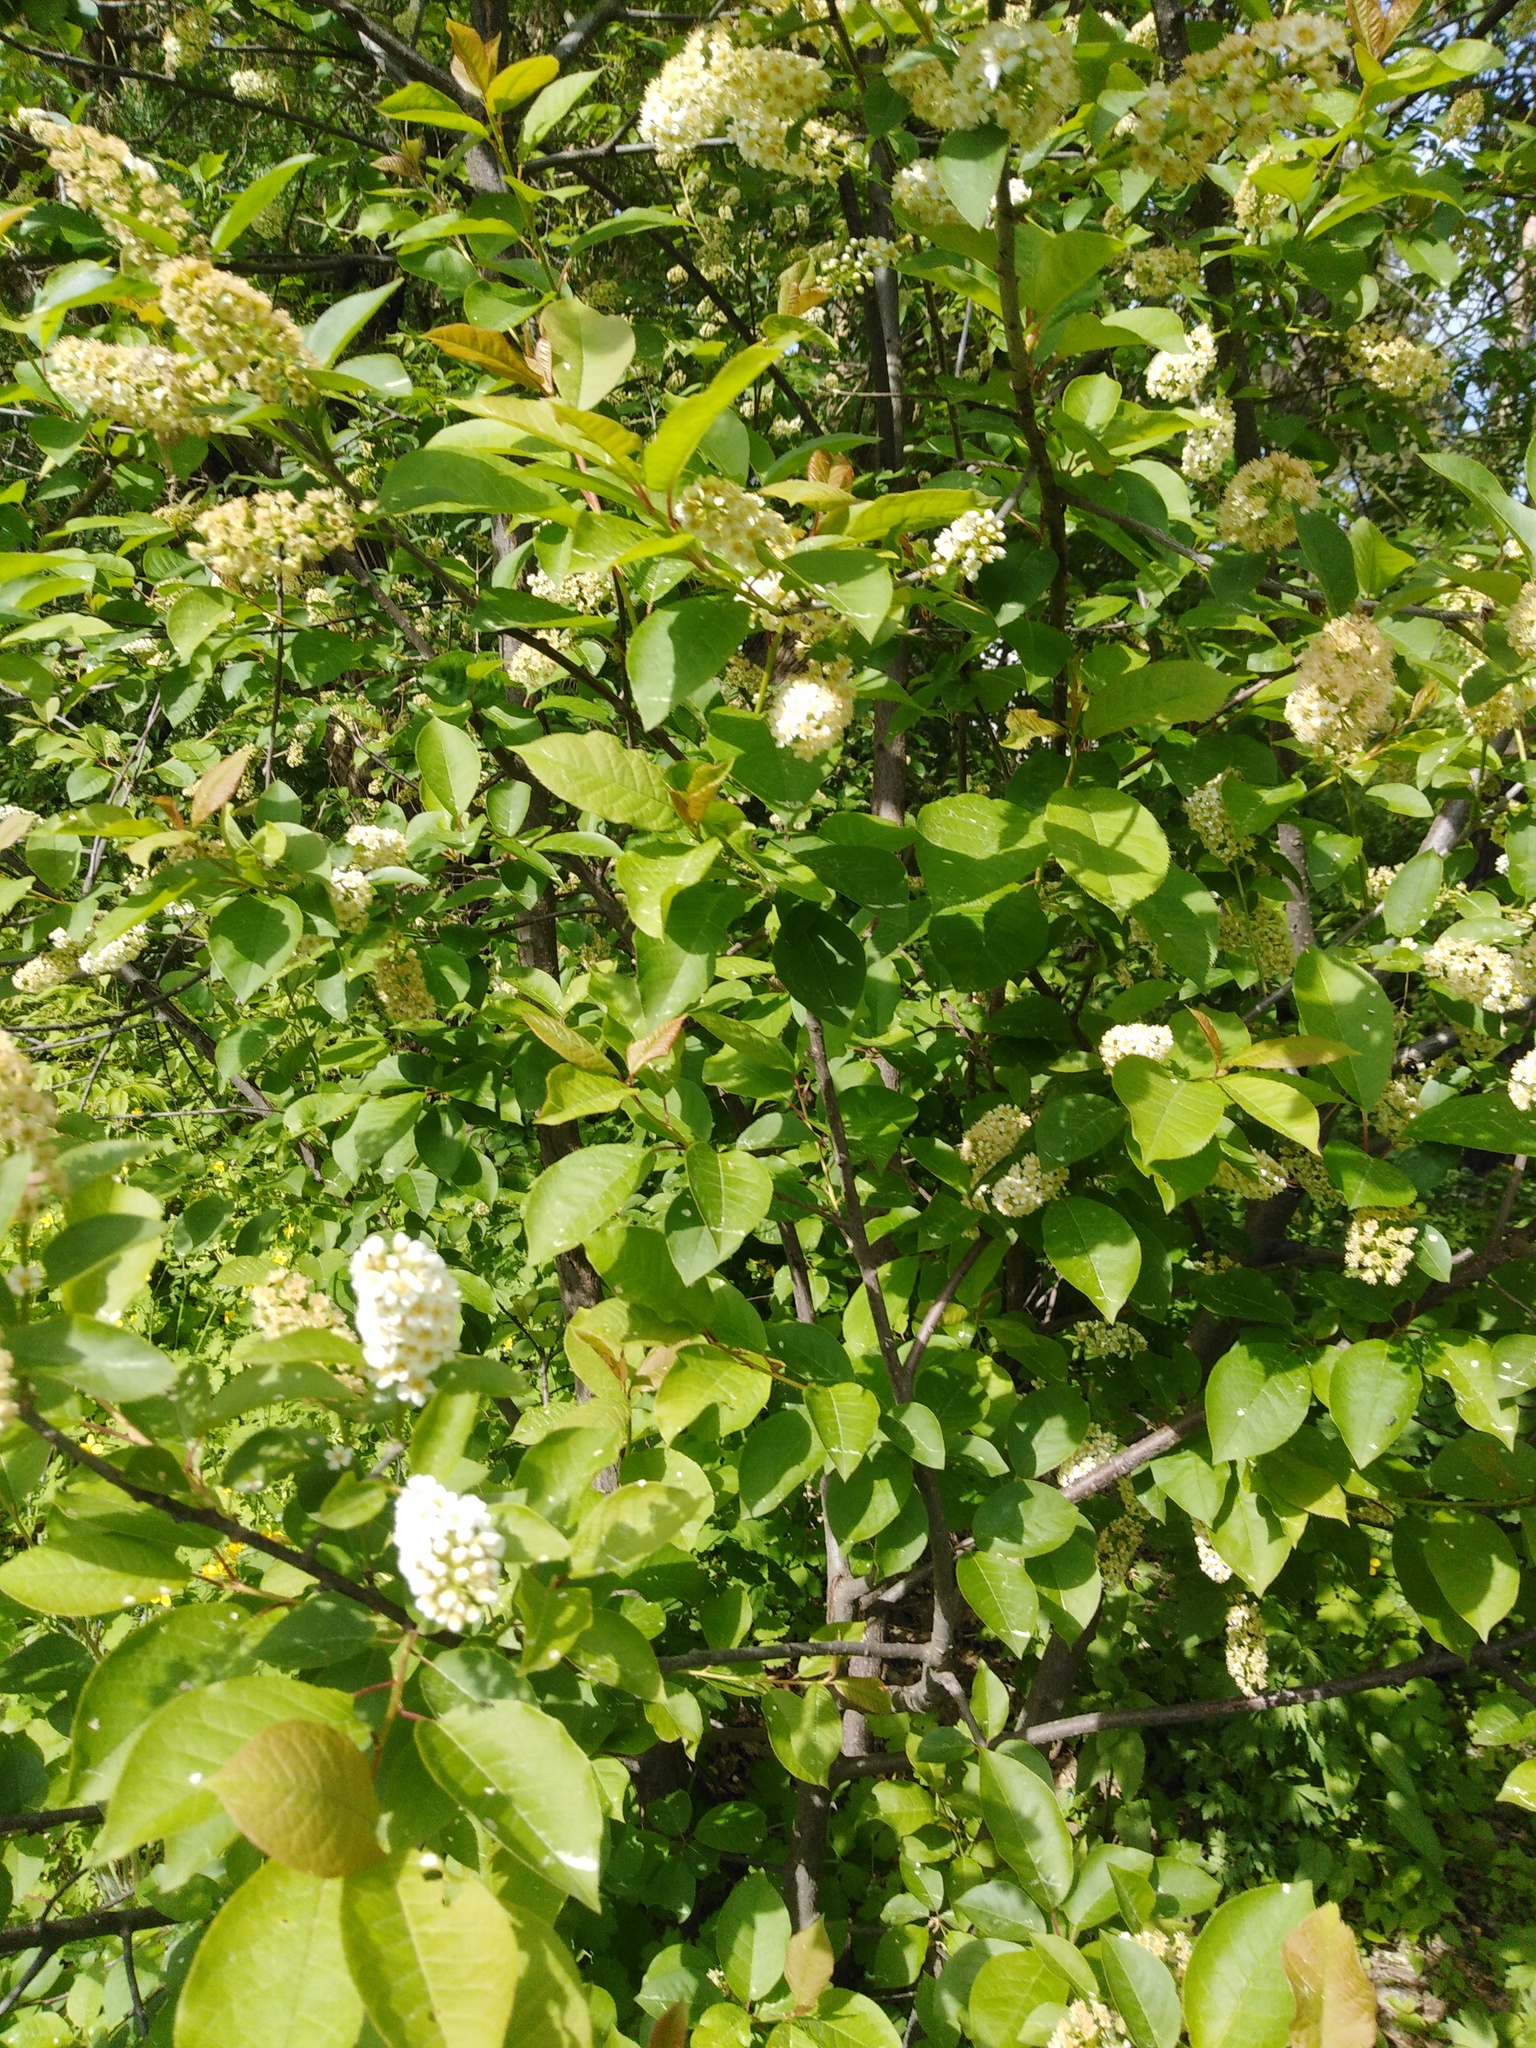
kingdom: Plantae
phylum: Tracheophyta
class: Magnoliopsida
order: Rosales
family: Rosaceae
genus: Prunus
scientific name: Prunus virginiana
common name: Chokecherry
